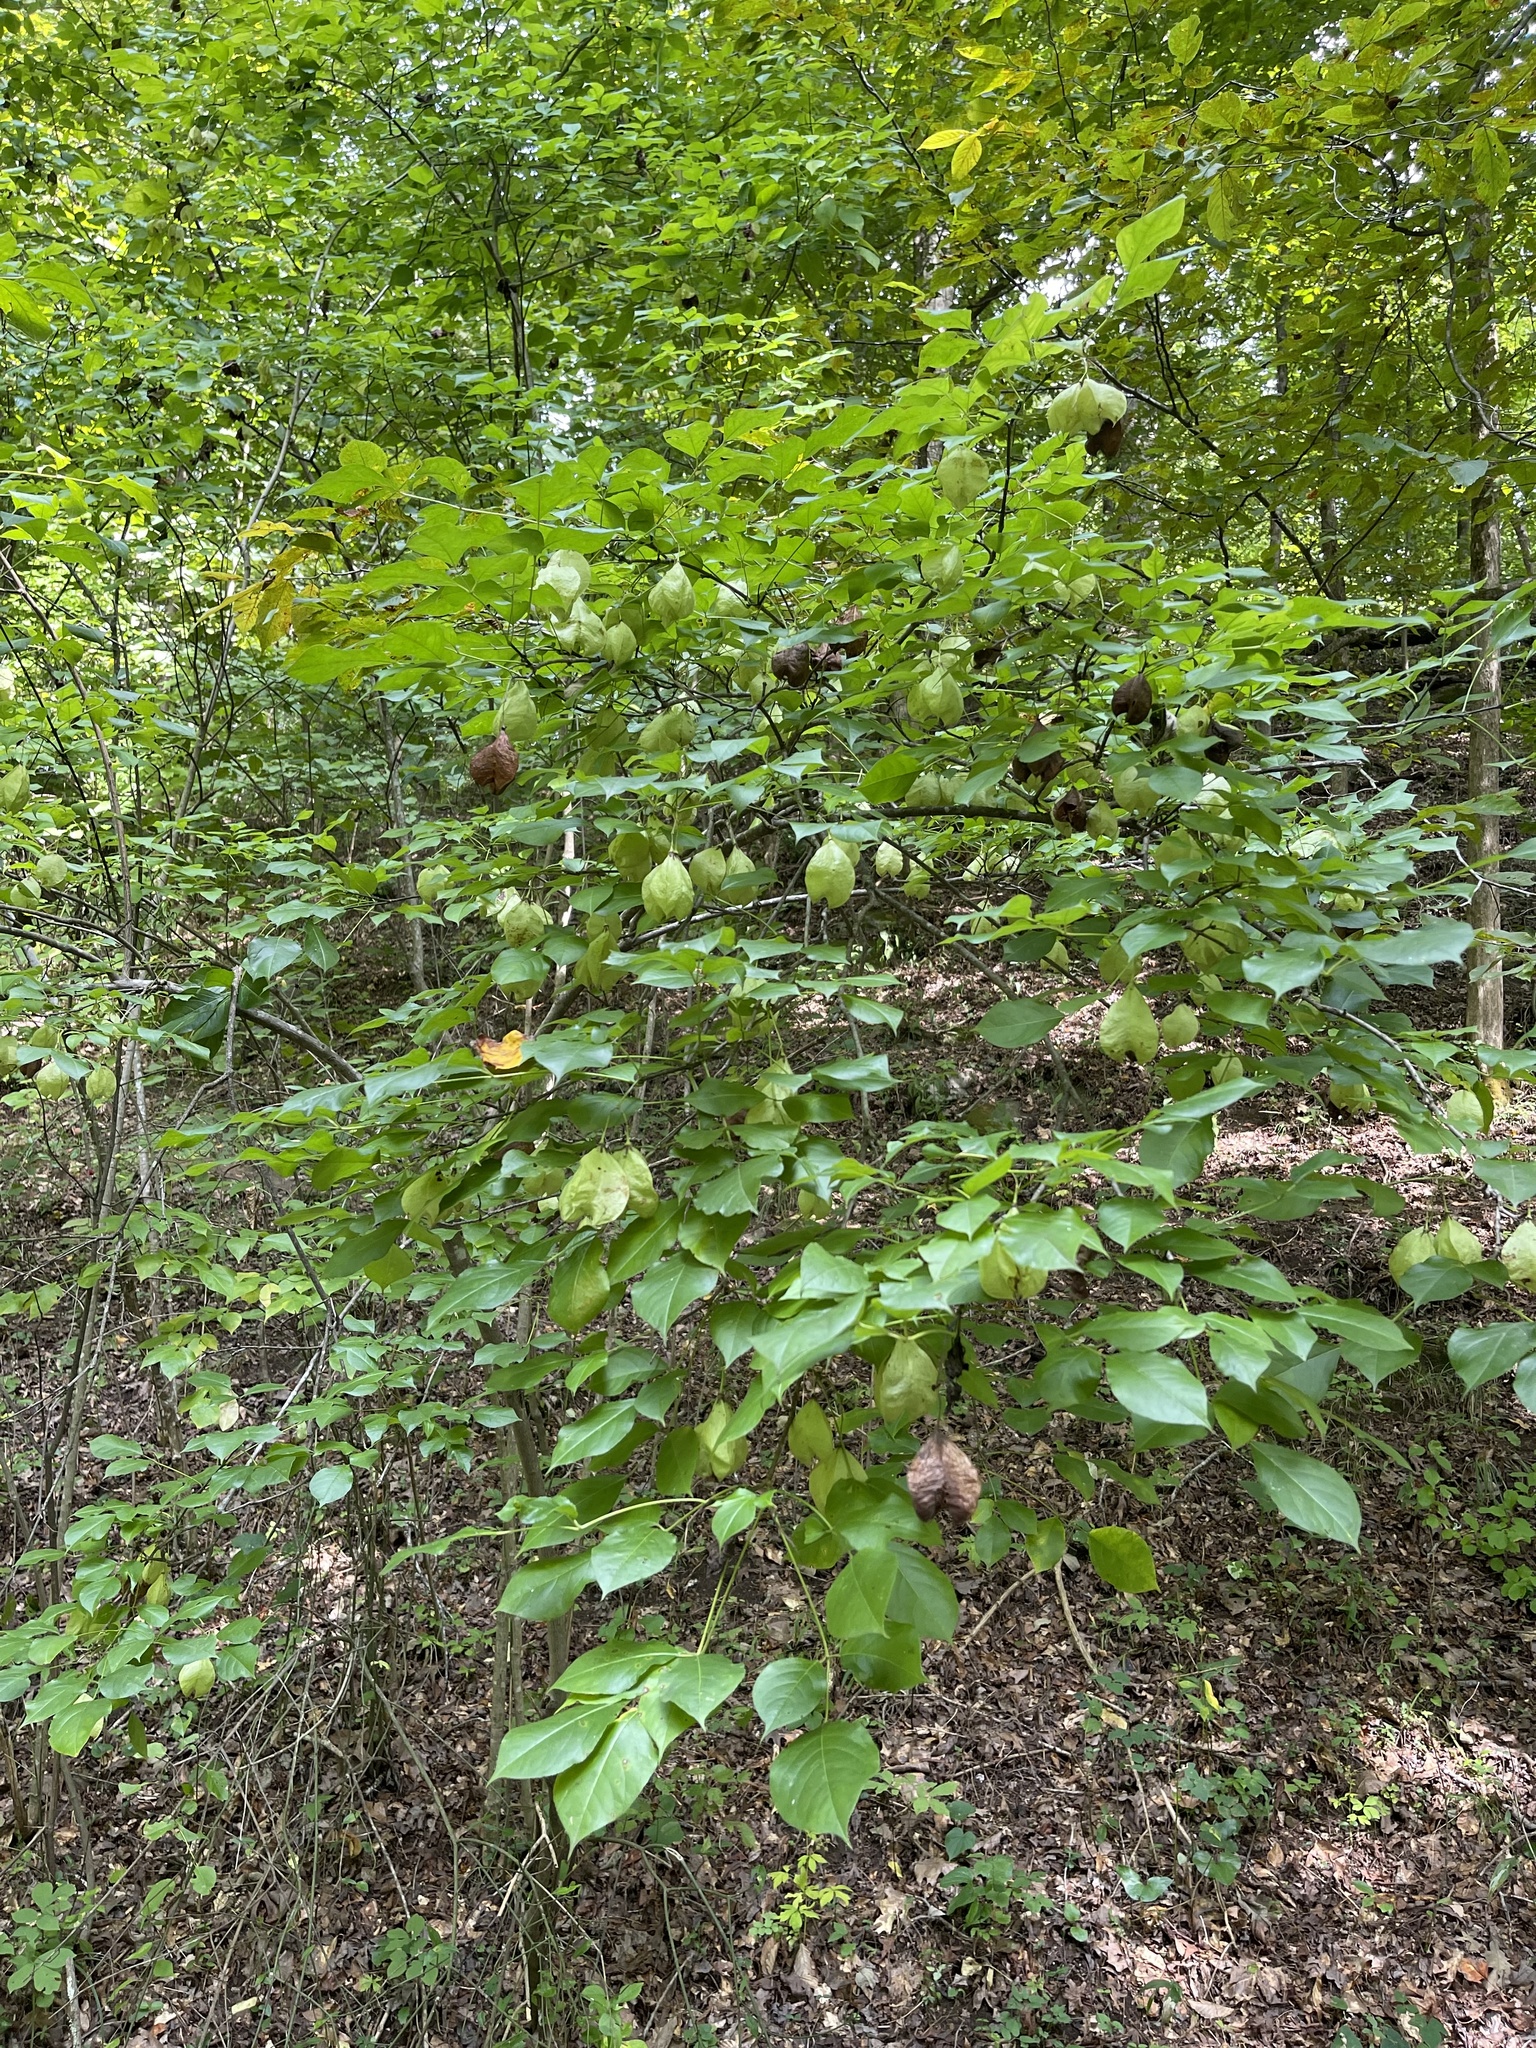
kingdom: Plantae
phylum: Tracheophyta
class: Magnoliopsida
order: Crossosomatales
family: Staphyleaceae
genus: Staphylea
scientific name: Staphylea trifolia
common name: American bladdernut
